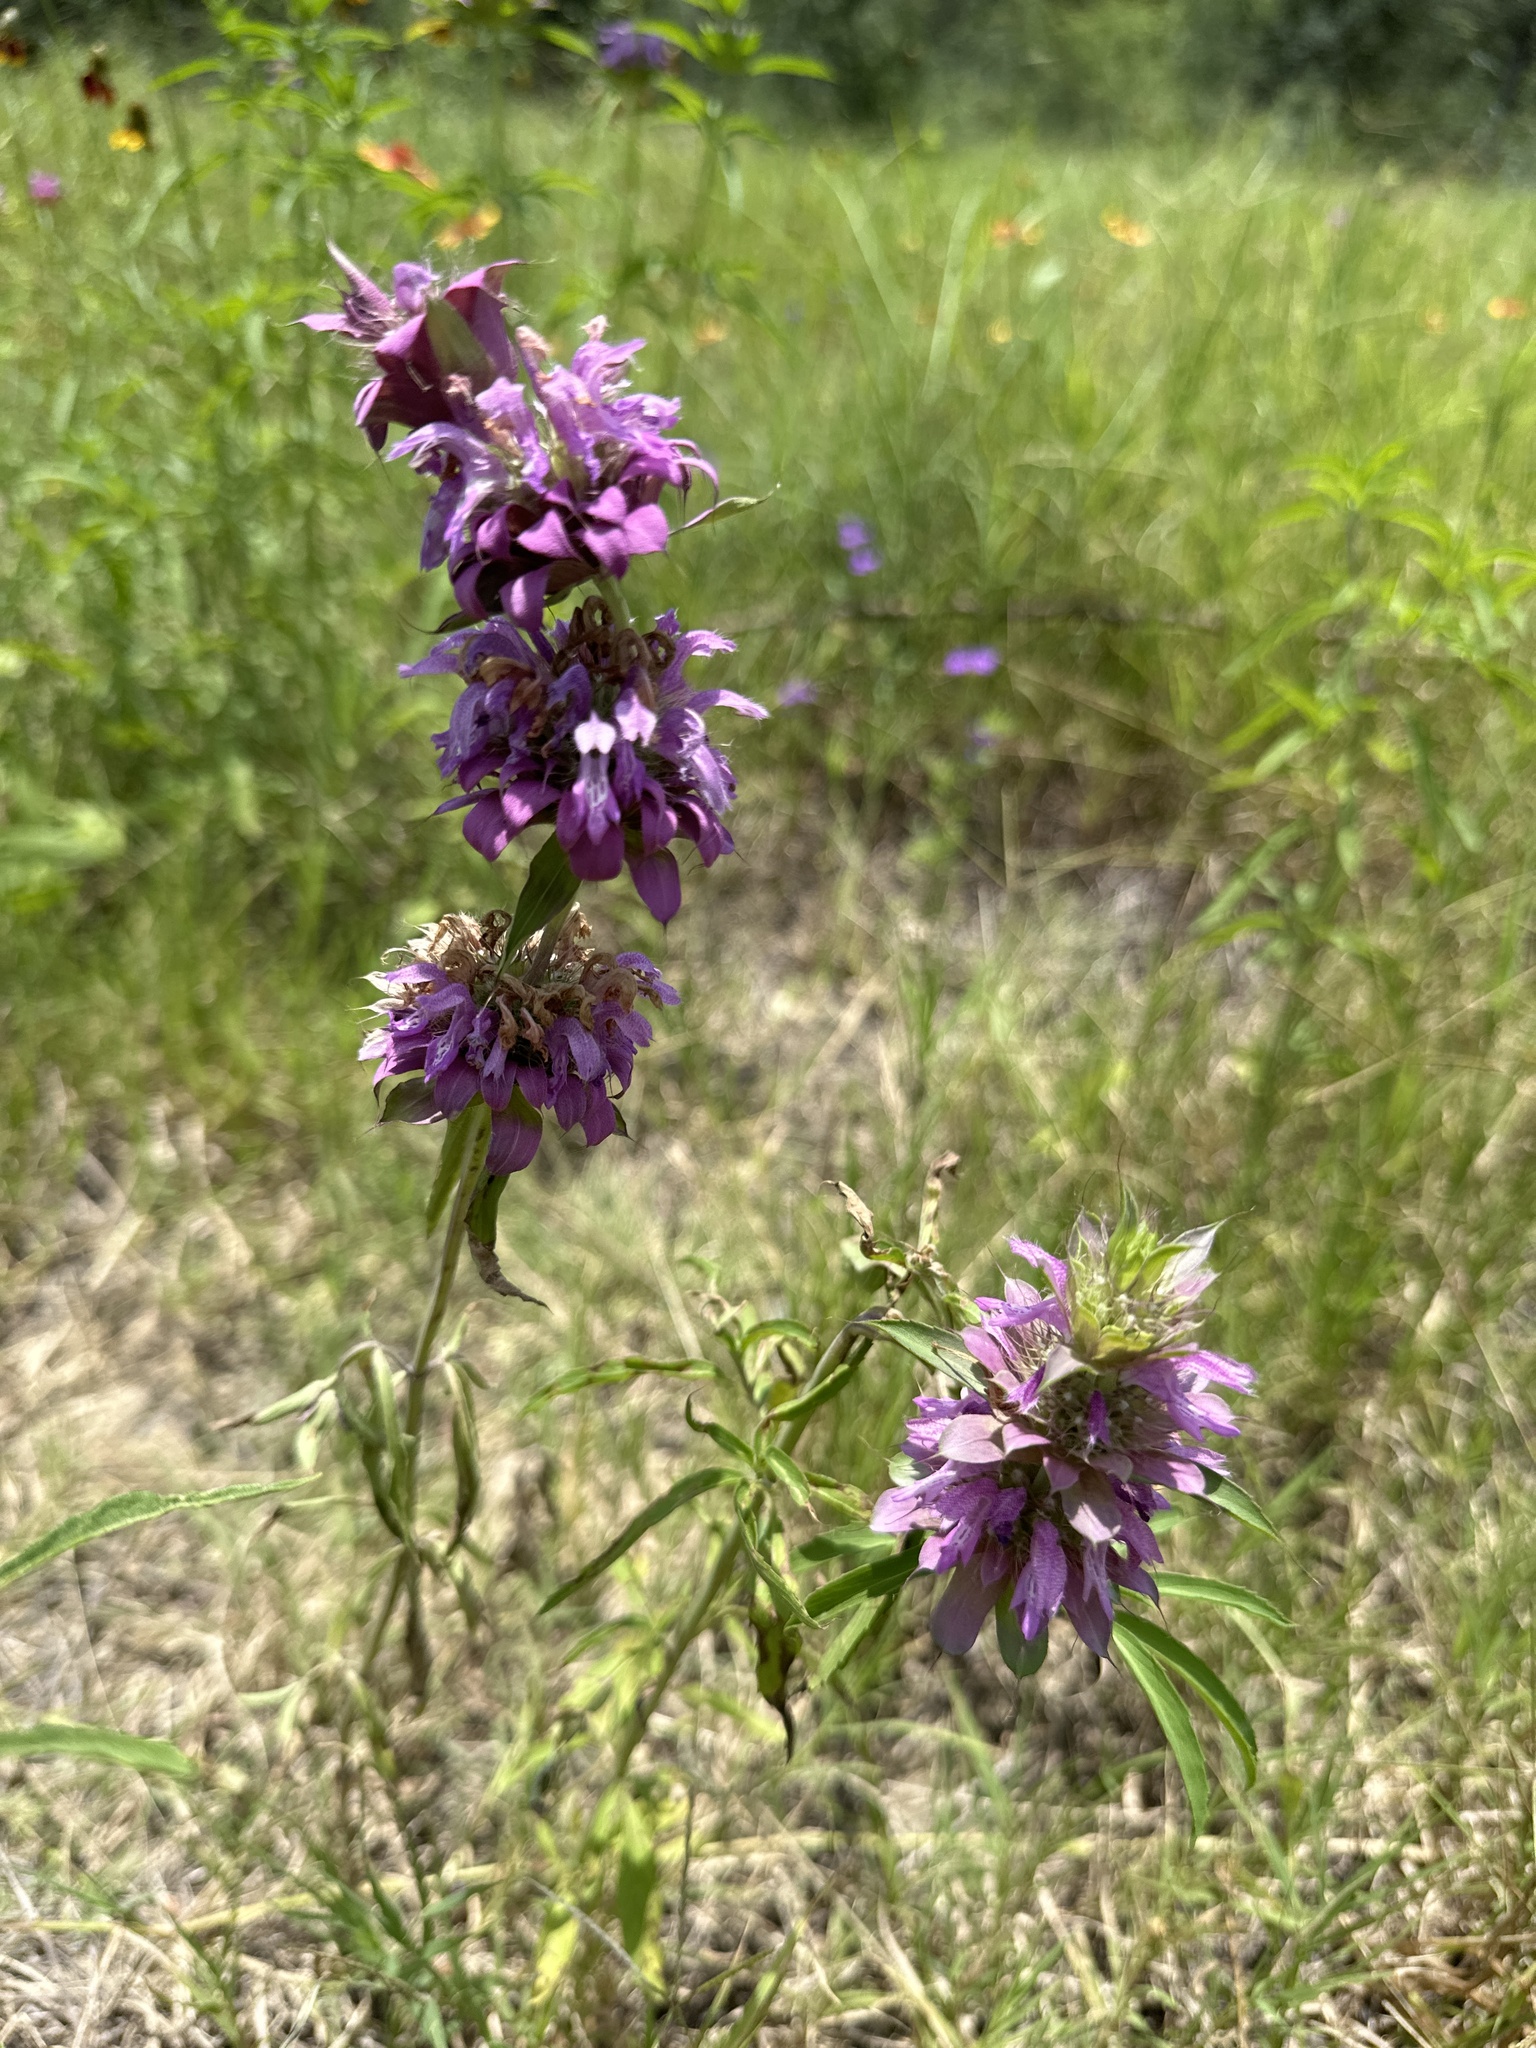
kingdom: Plantae
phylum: Tracheophyta
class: Magnoliopsida
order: Lamiales
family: Lamiaceae
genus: Monarda
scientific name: Monarda citriodora
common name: Lemon beebalm
